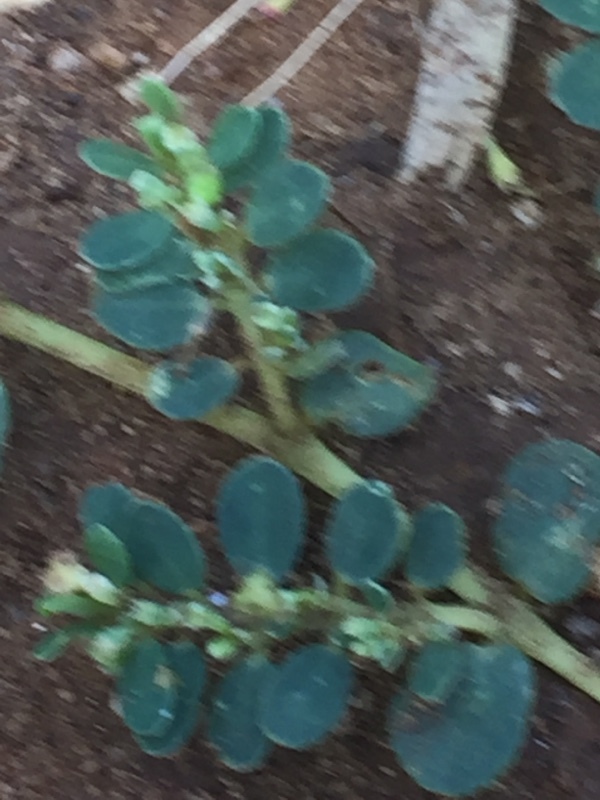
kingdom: Plantae
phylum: Tracheophyta
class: Magnoliopsida
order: Malpighiales
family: Euphorbiaceae
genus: Euphorbia
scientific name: Euphorbia prostrata
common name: Prostrate sandmat
